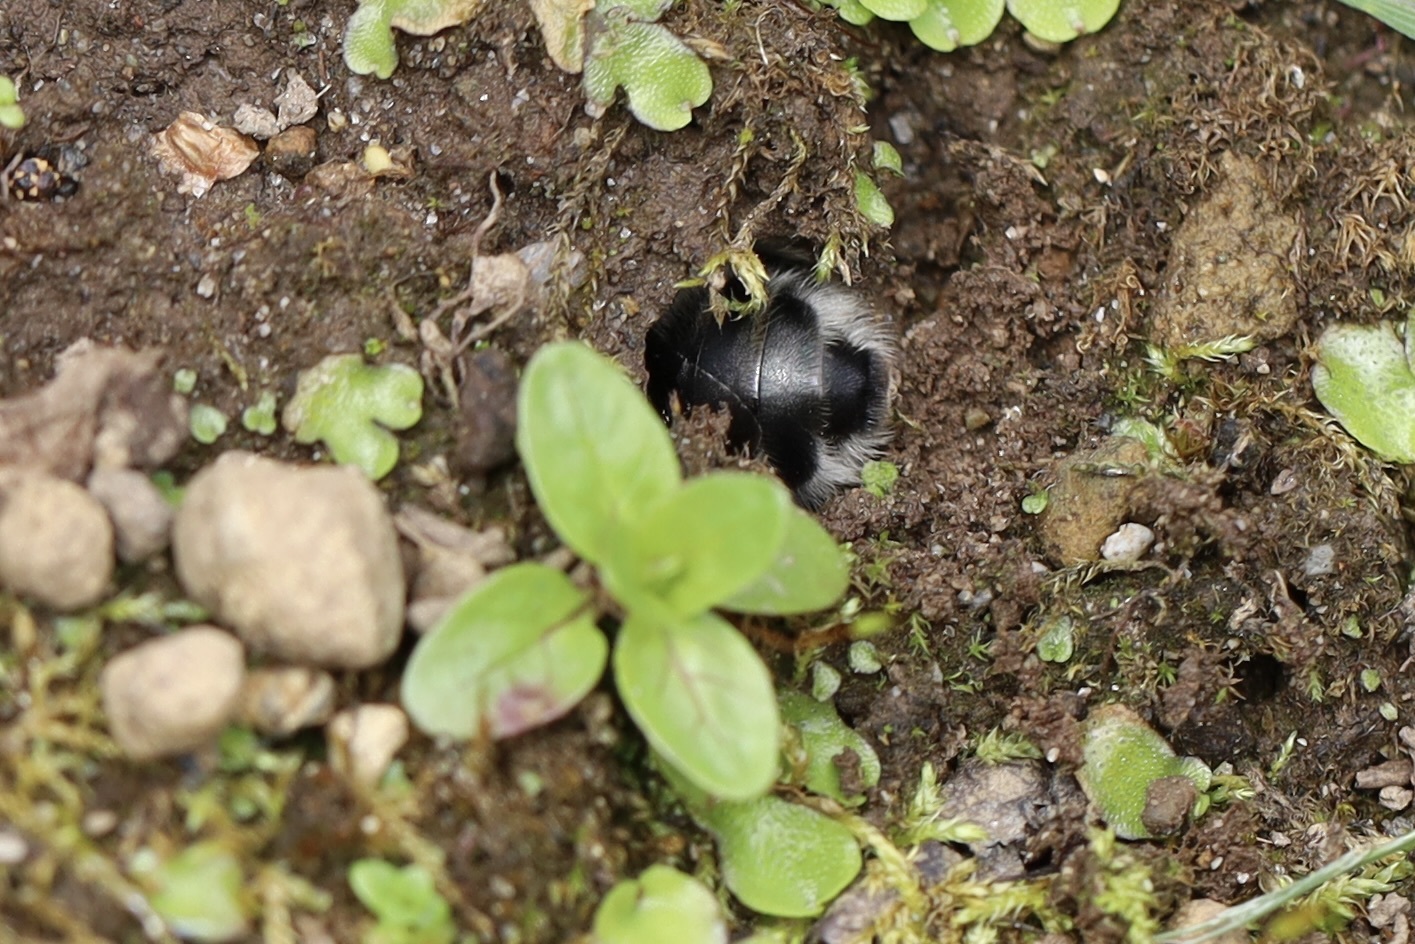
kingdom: Animalia
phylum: Arthropoda
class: Insecta
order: Hymenoptera
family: Apidae
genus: Anthophora
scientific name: Anthophora pacifica
